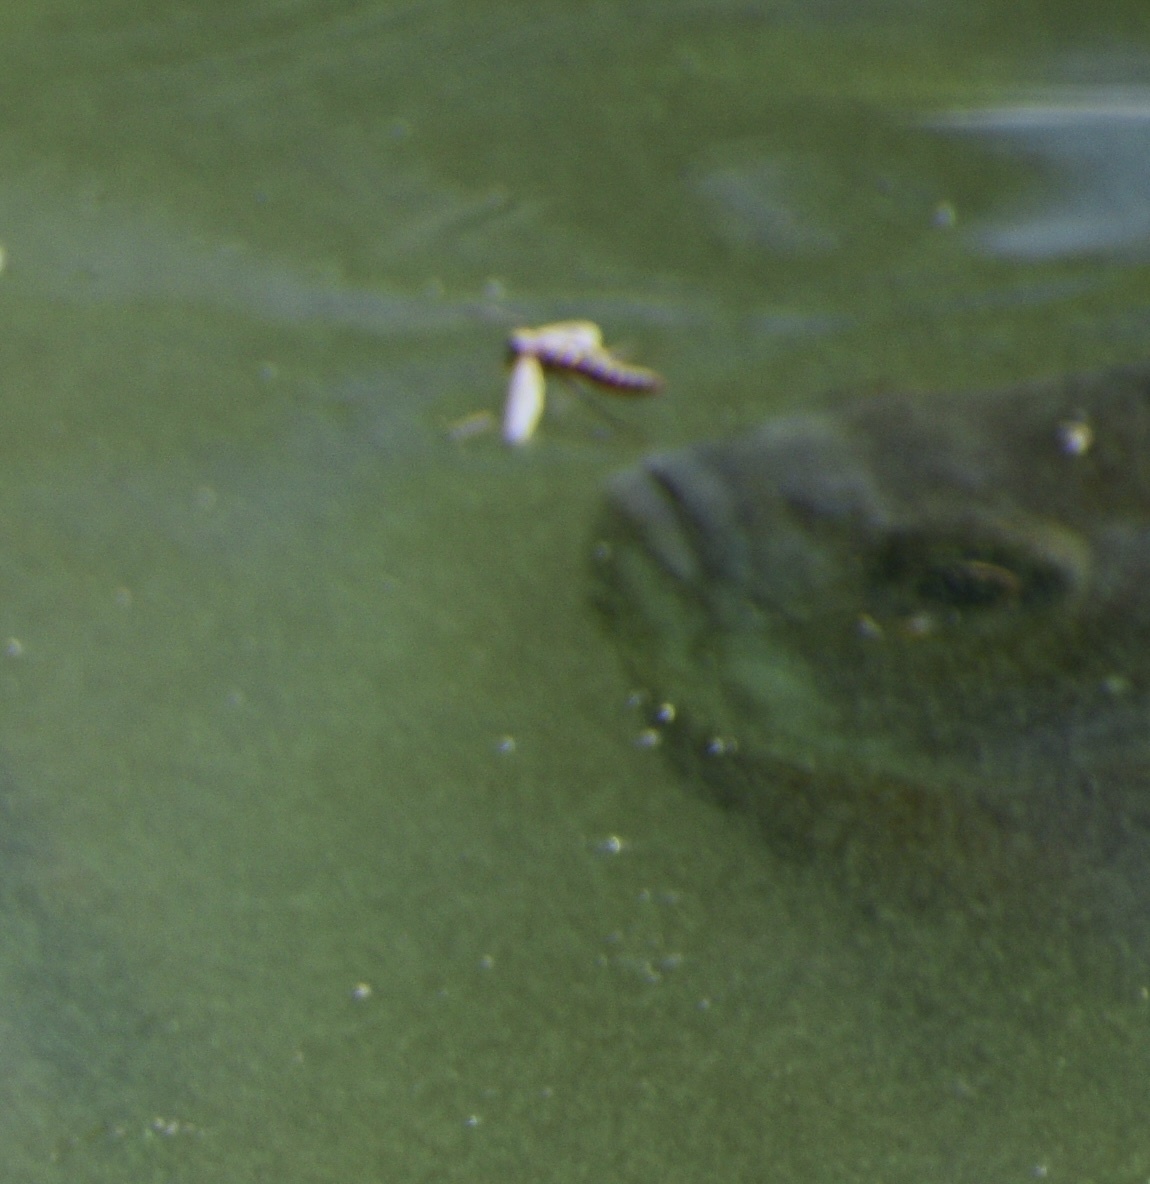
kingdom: Animalia
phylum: Chordata
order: Perciformes
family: Centrarchidae
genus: Lepomis
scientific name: Lepomis macrochirus
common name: Bluegill
